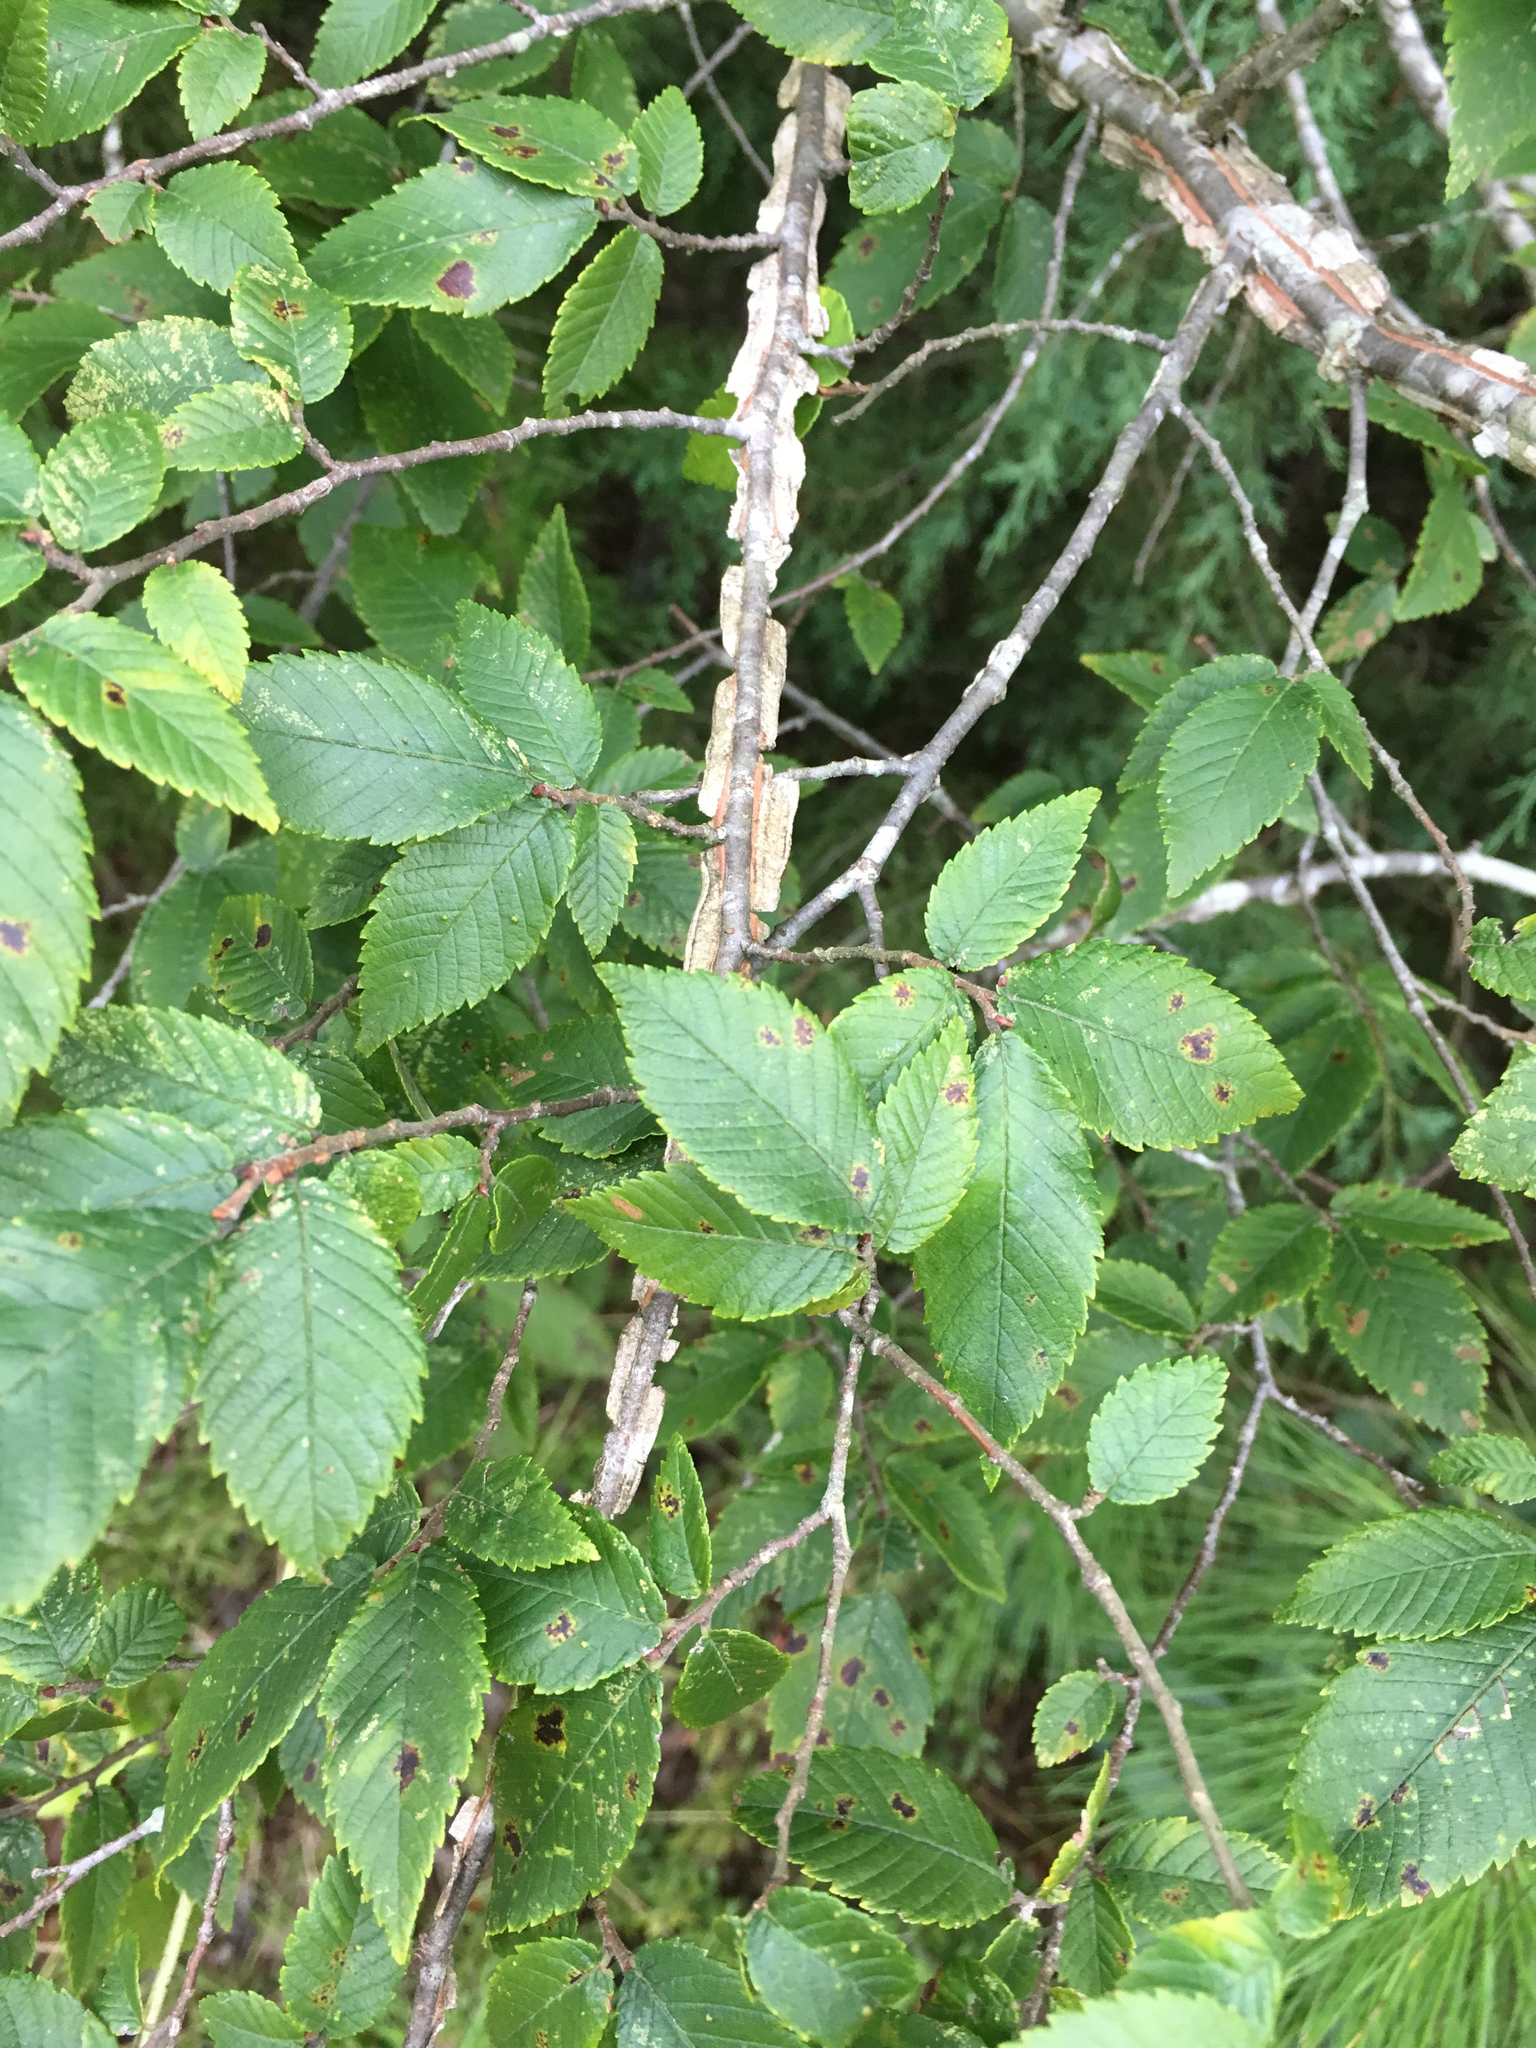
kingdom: Plantae
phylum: Tracheophyta
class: Magnoliopsida
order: Rosales
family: Ulmaceae
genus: Ulmus
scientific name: Ulmus alata
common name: Winged elm
